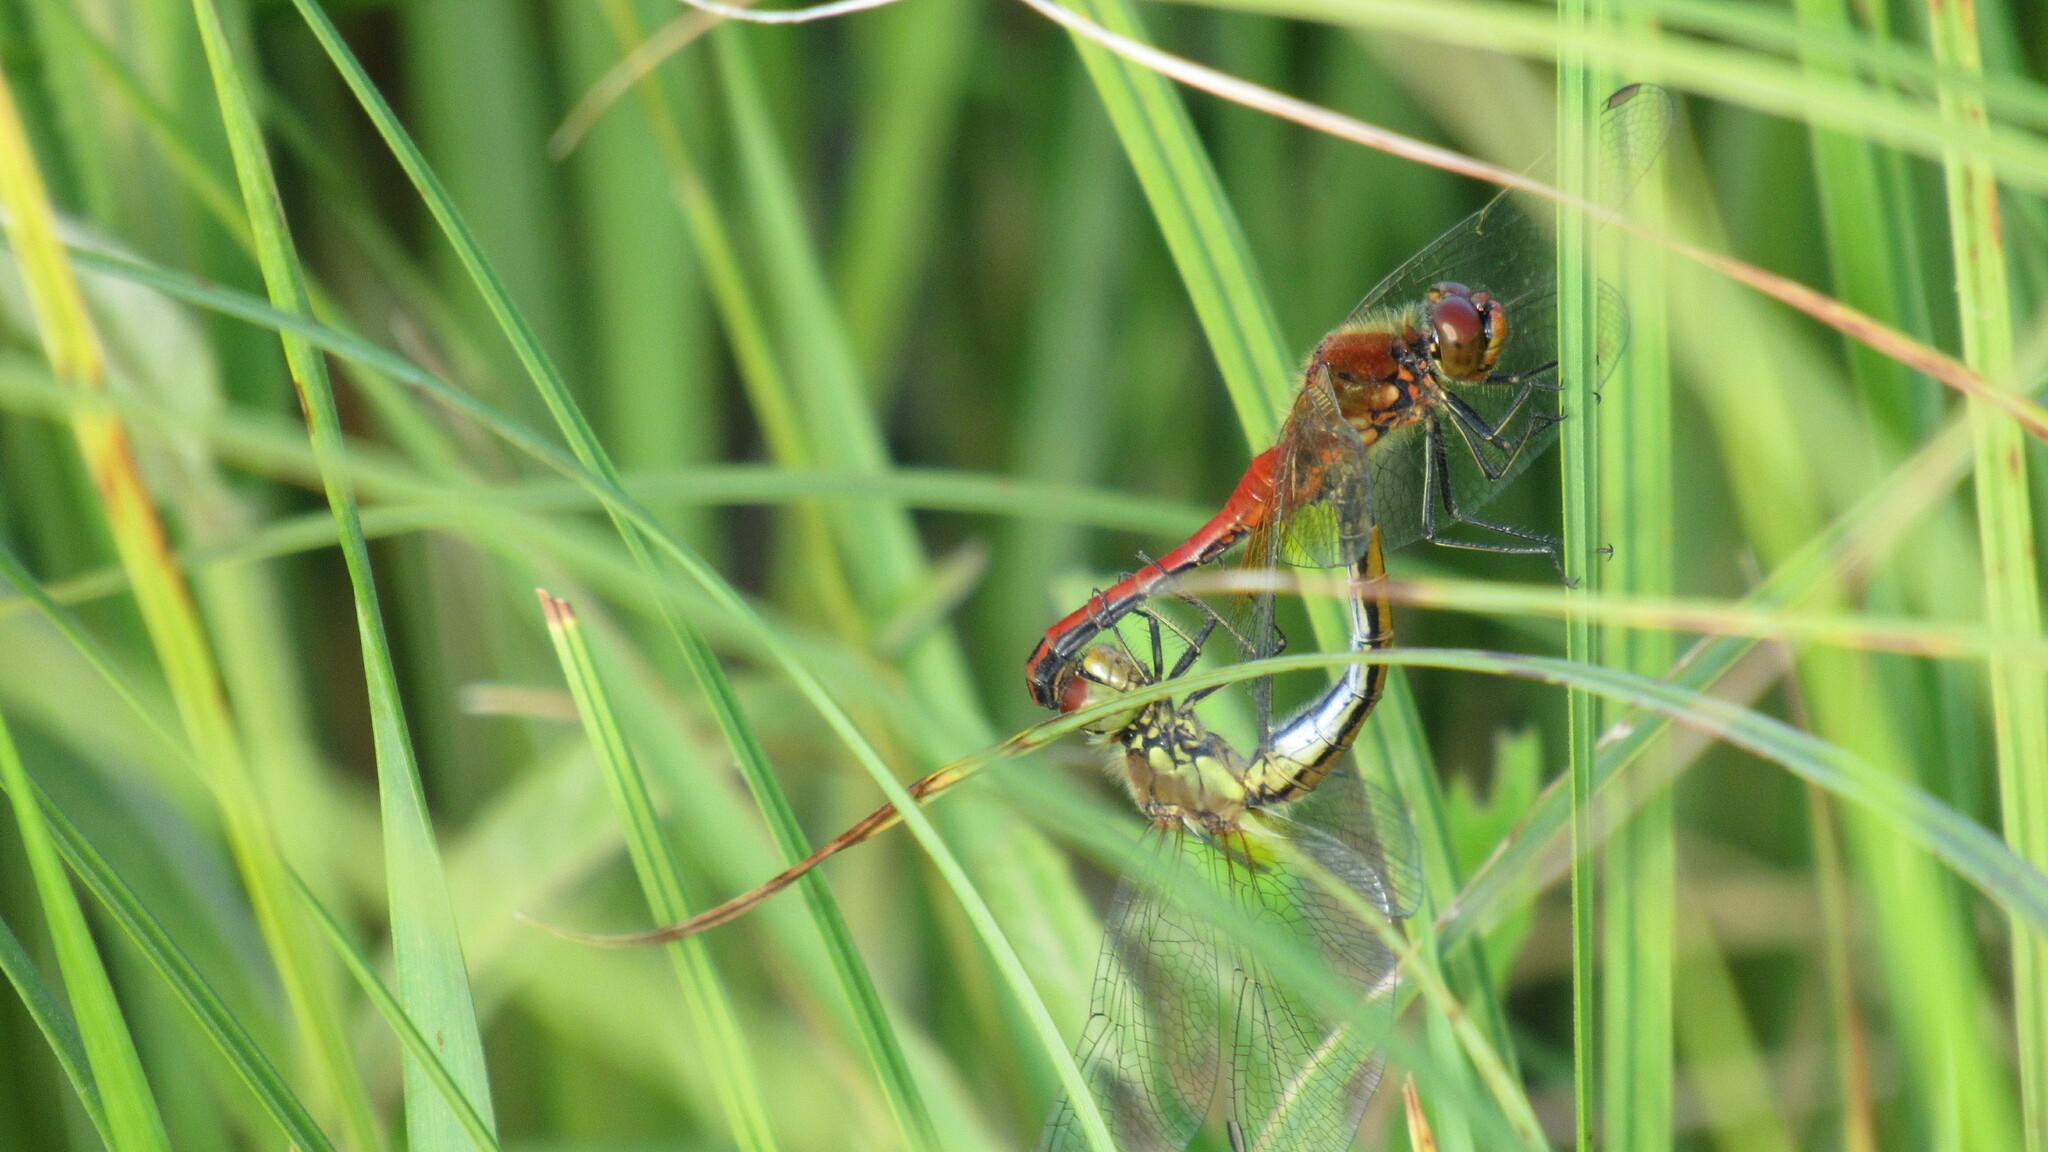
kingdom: Animalia
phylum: Arthropoda
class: Insecta
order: Odonata
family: Libellulidae
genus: Sympetrum
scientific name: Sympetrum flaveolum
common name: Yellow-winged darter
